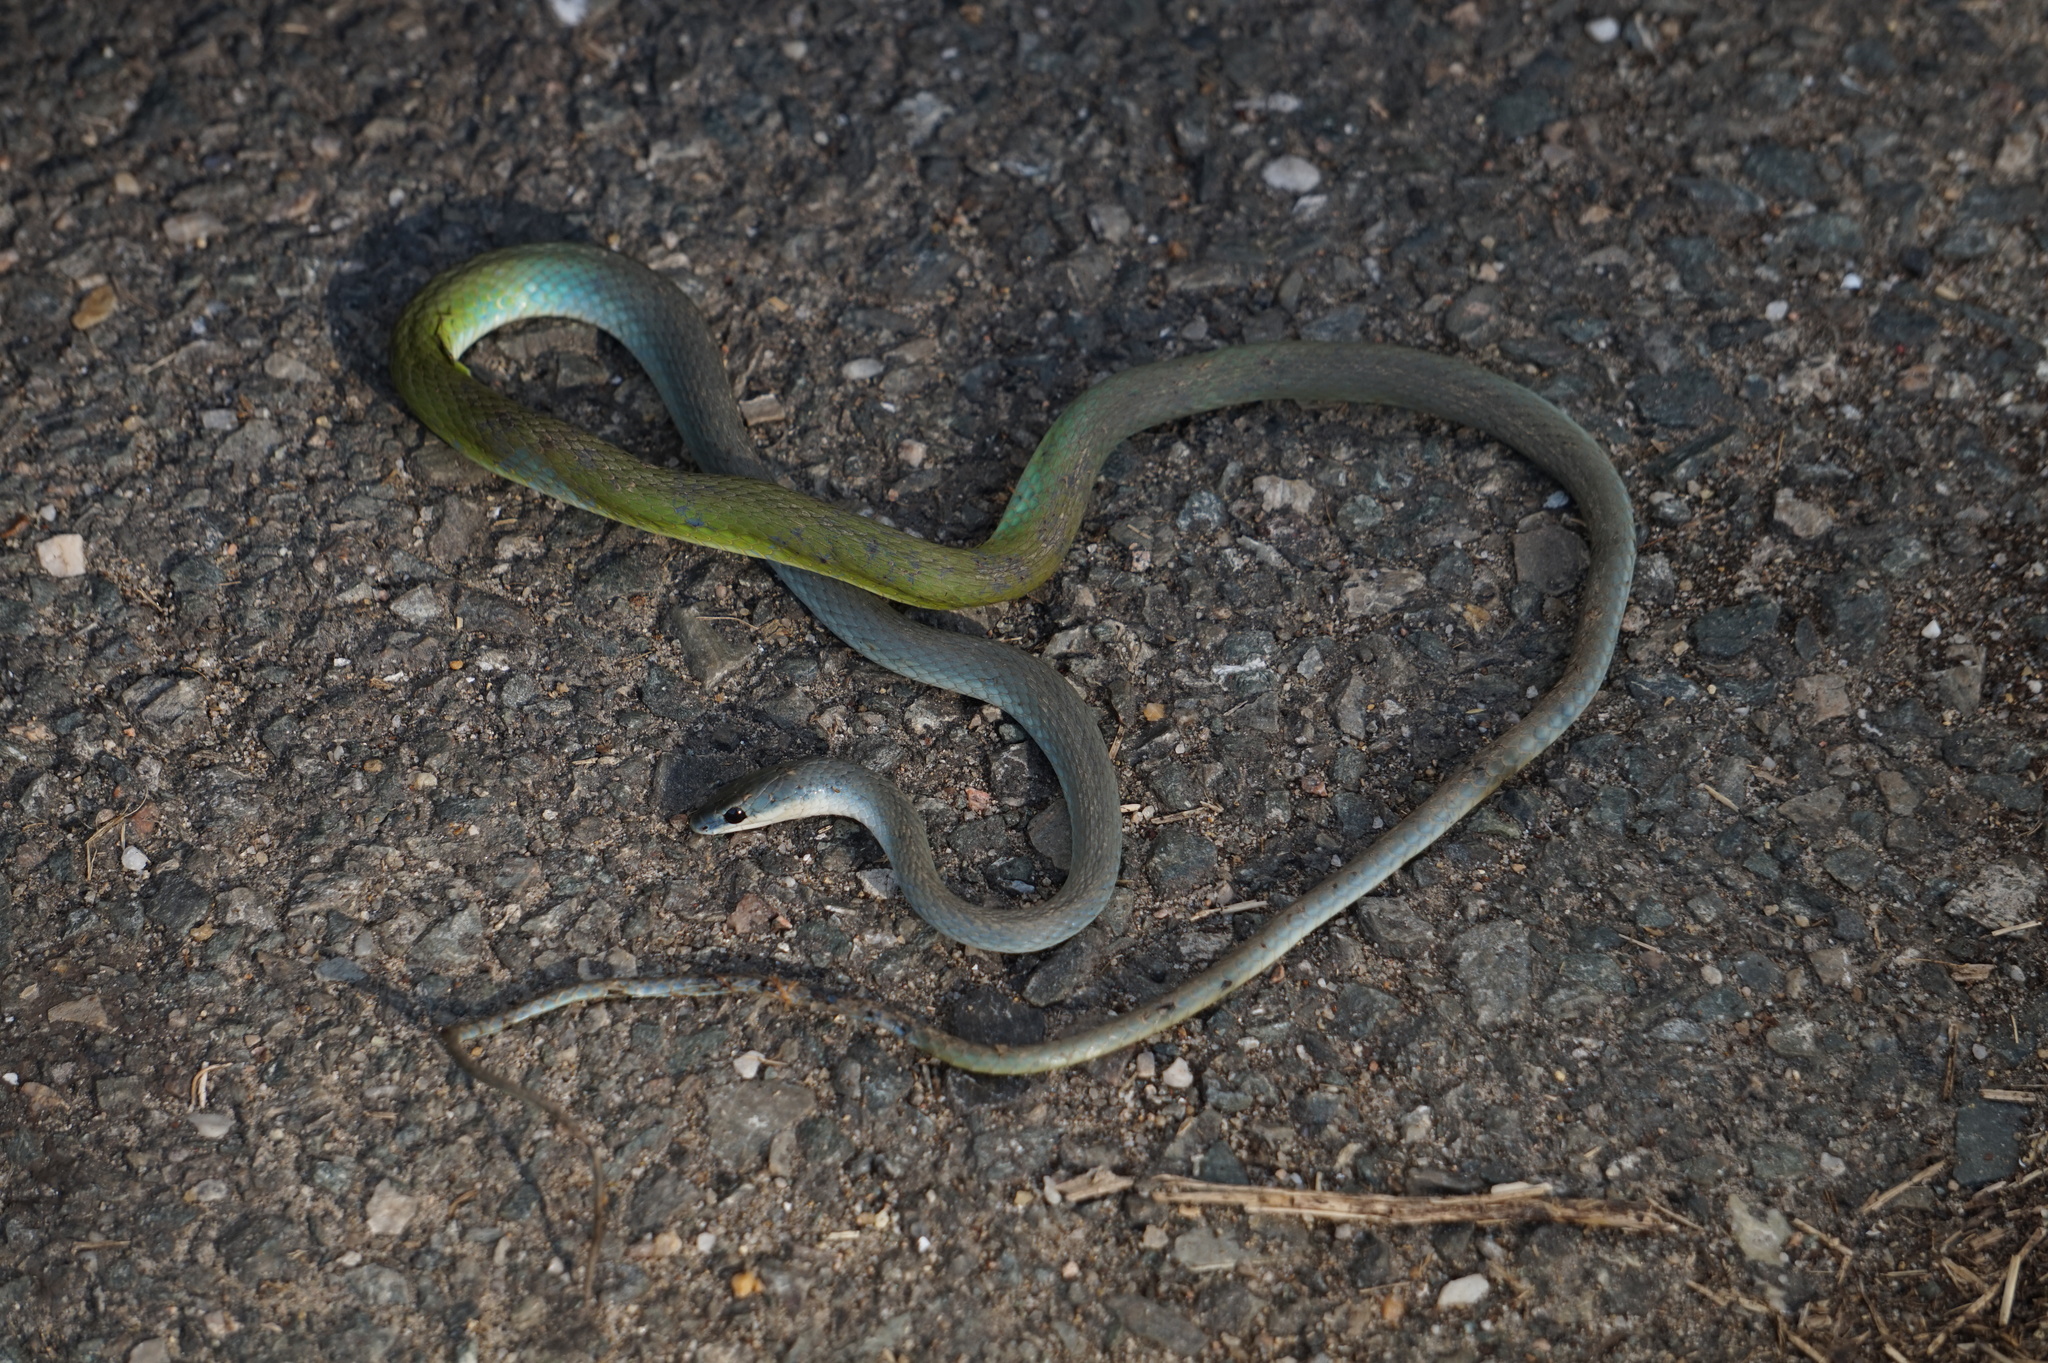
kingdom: Animalia
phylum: Chordata
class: Squamata
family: Colubridae
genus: Opheodrys
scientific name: Opheodrys aestivus
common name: Rough greensnake
